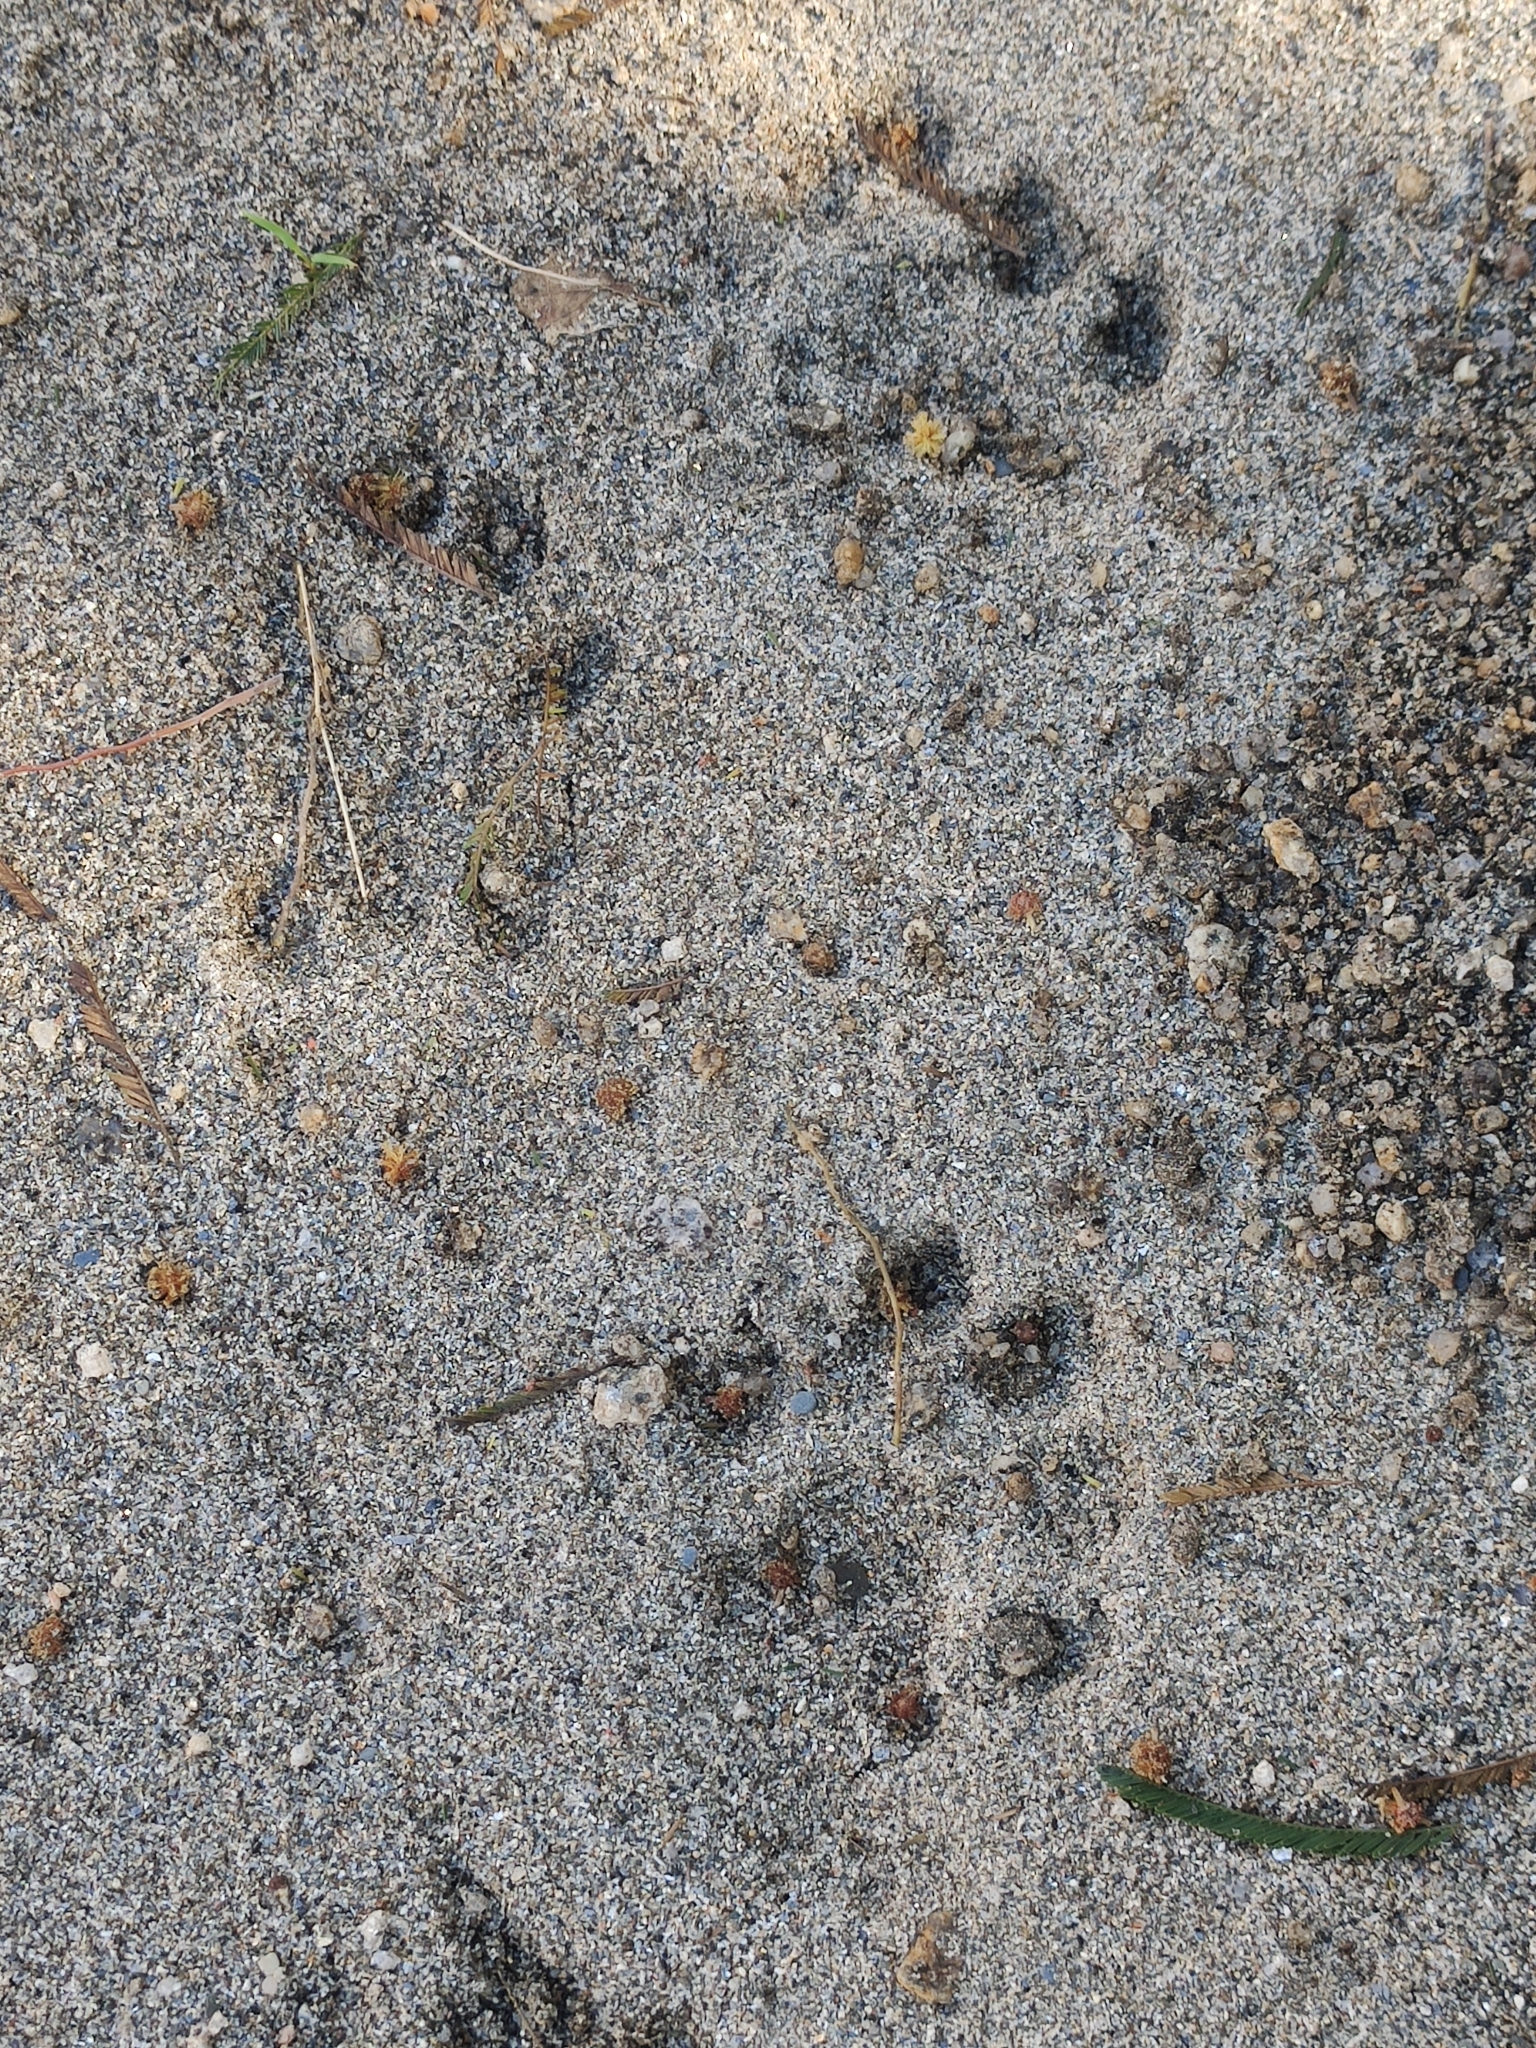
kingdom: Animalia
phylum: Chordata
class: Mammalia
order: Carnivora
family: Mustelidae
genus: Lutra
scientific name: Lutra lutra
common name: European otter
